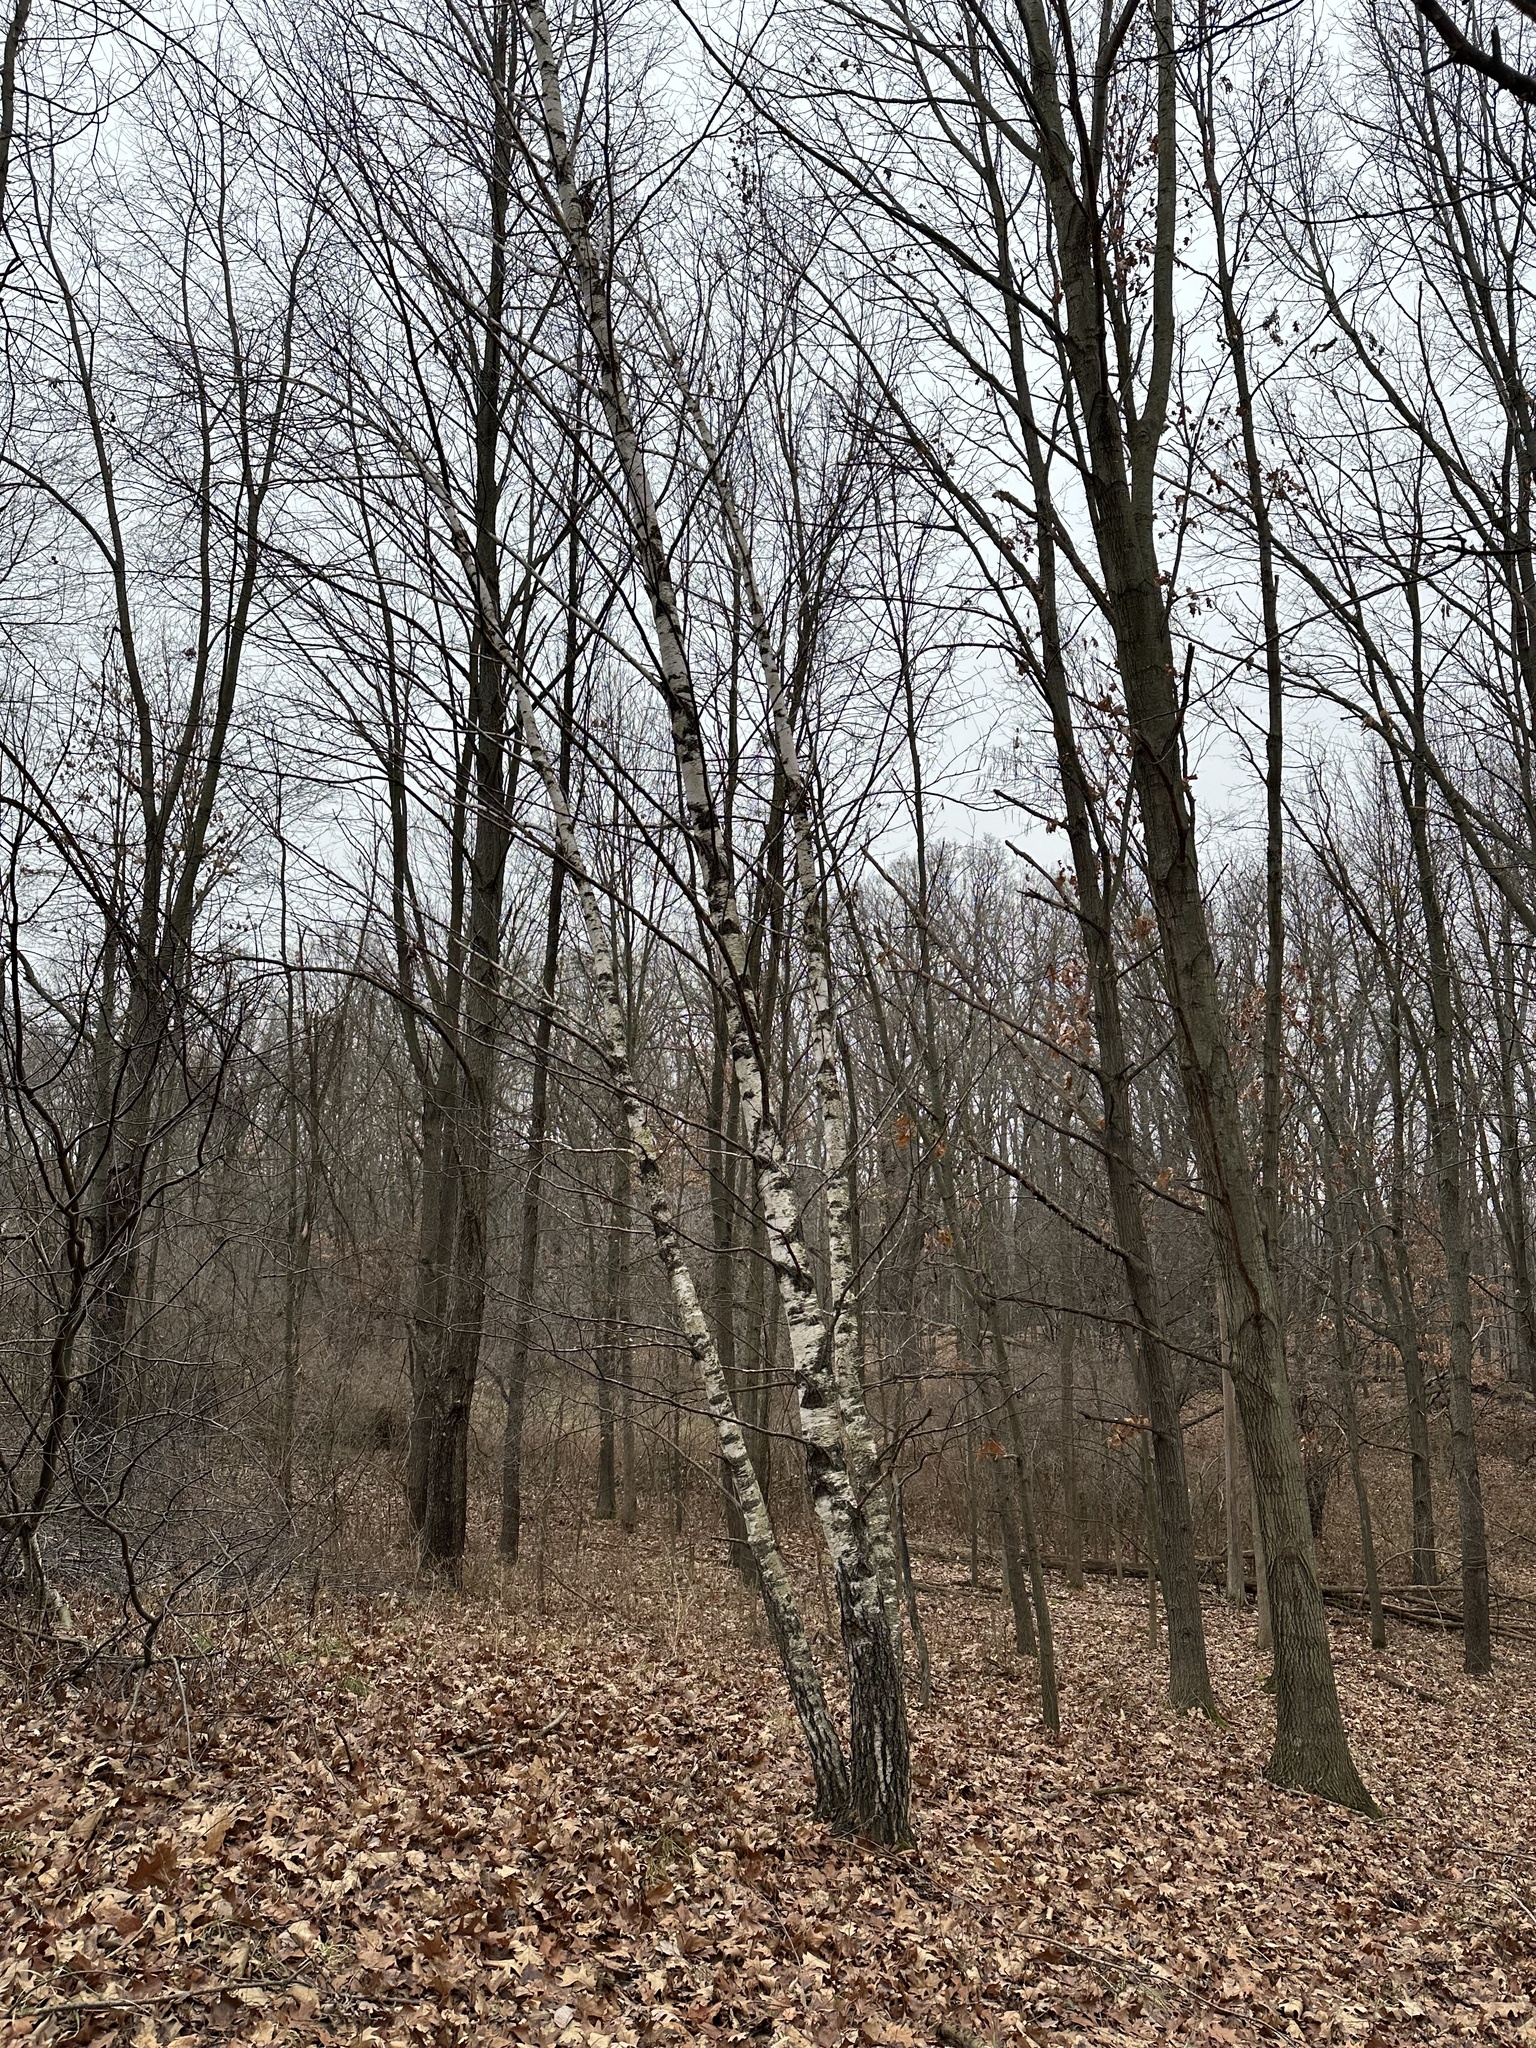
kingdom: Plantae
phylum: Tracheophyta
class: Magnoliopsida
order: Fagales
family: Betulaceae
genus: Betula
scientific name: Betula papyrifera
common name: Paper birch
